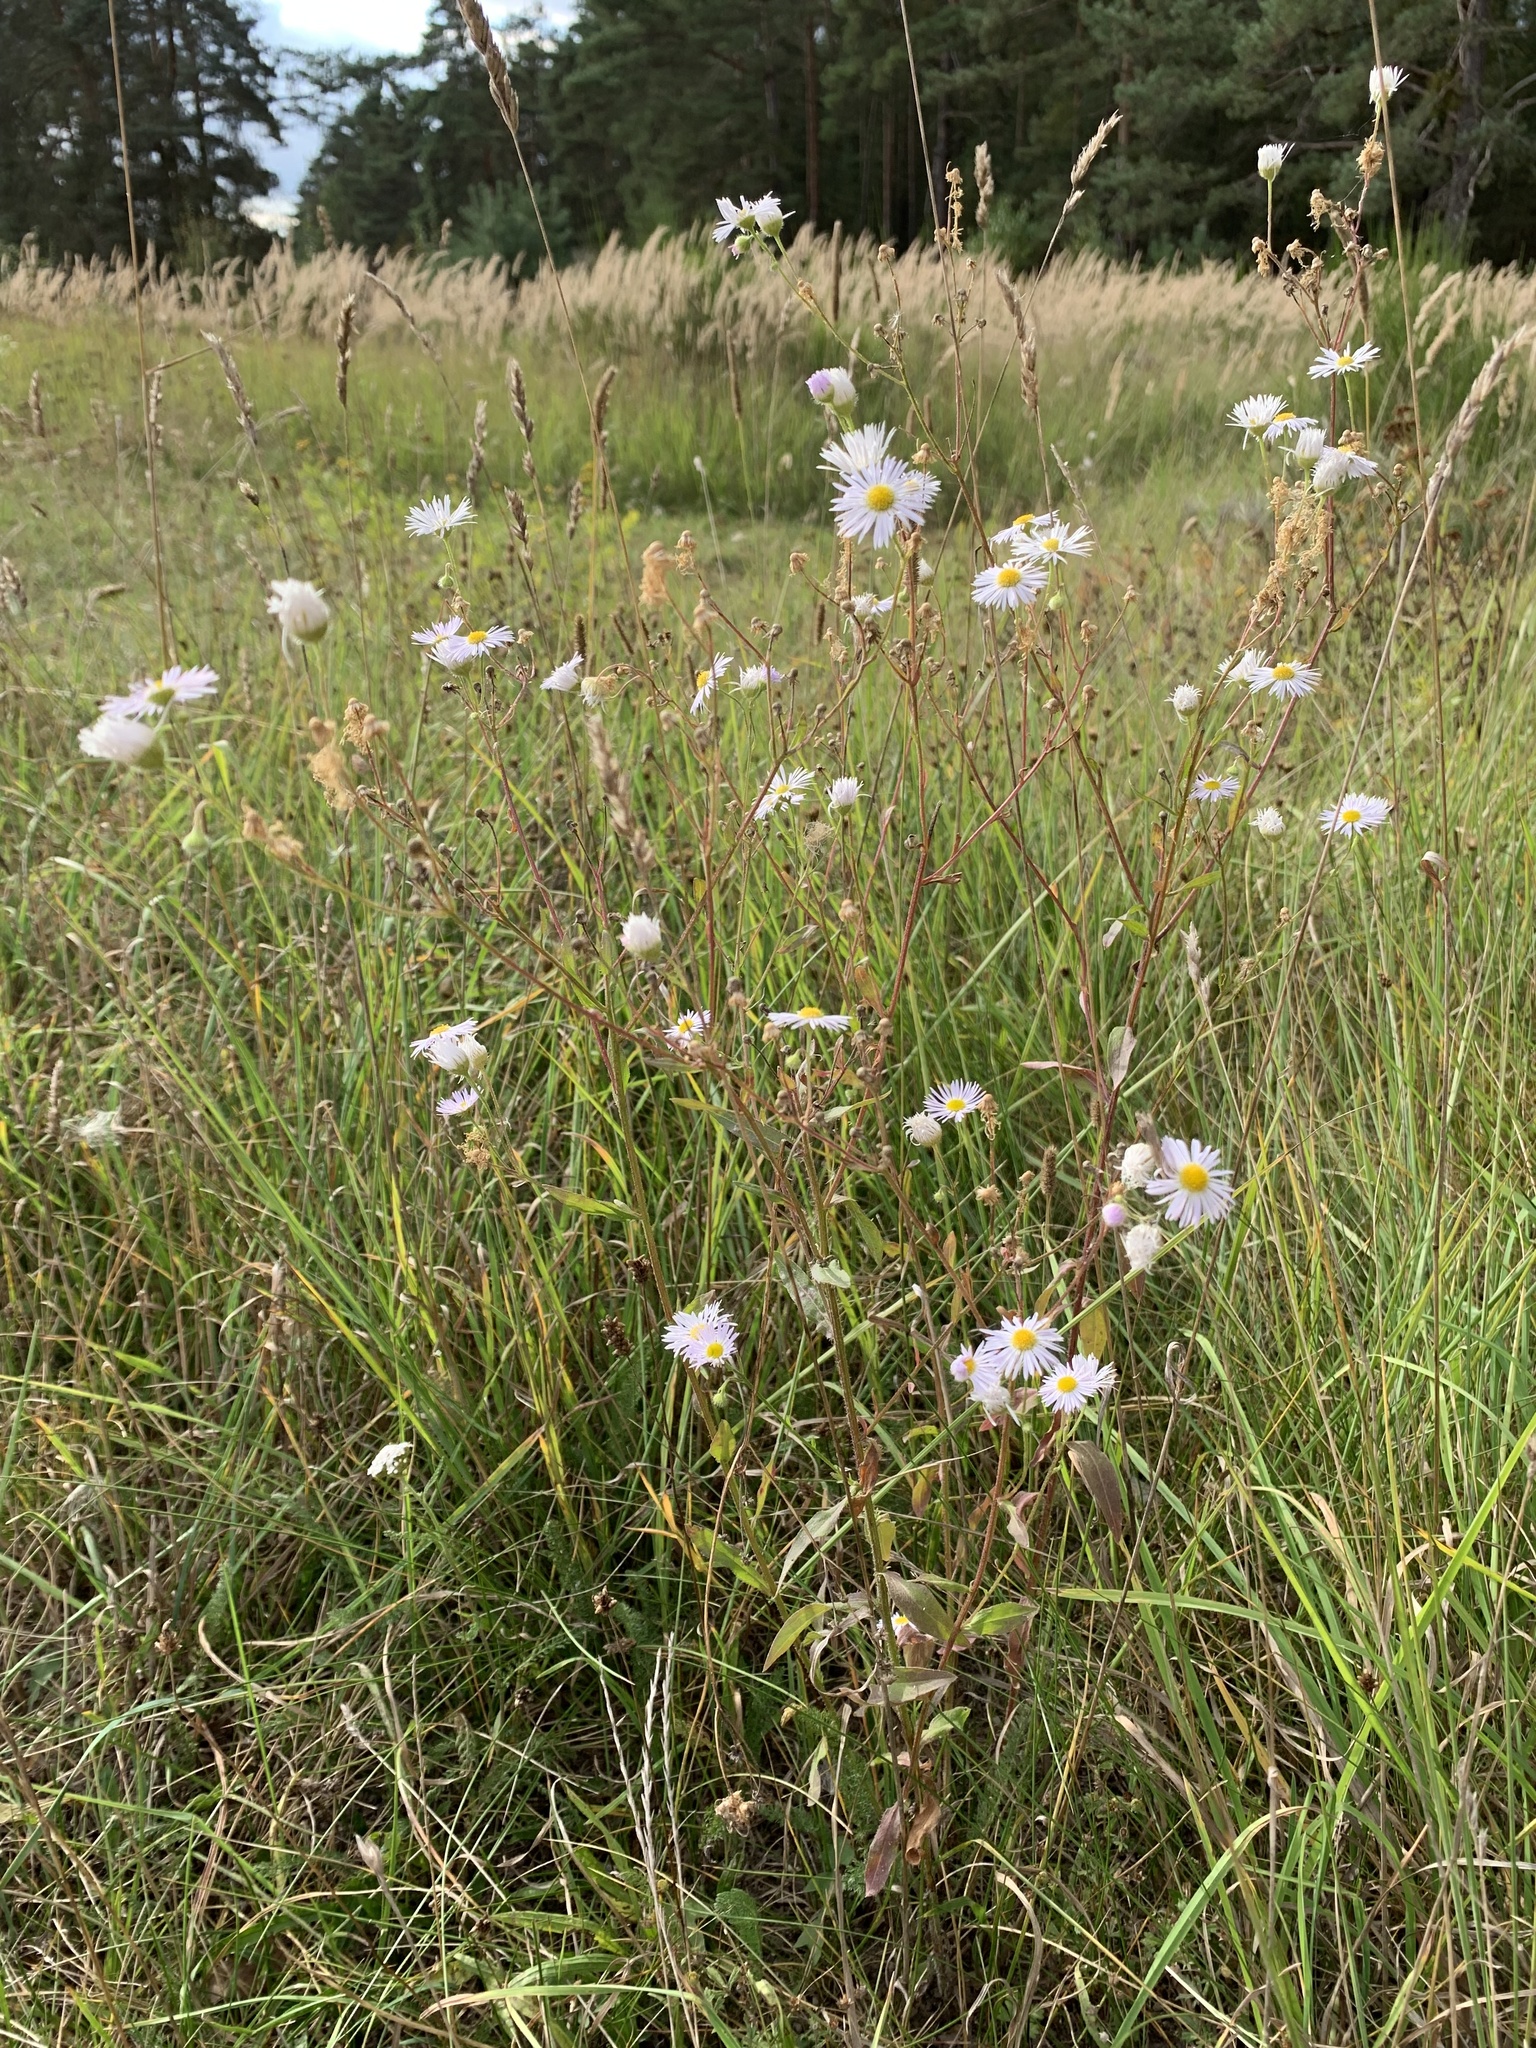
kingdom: Plantae
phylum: Tracheophyta
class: Magnoliopsida
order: Asterales
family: Asteraceae
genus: Erigeron
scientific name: Erigeron annuus
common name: Tall fleabane
